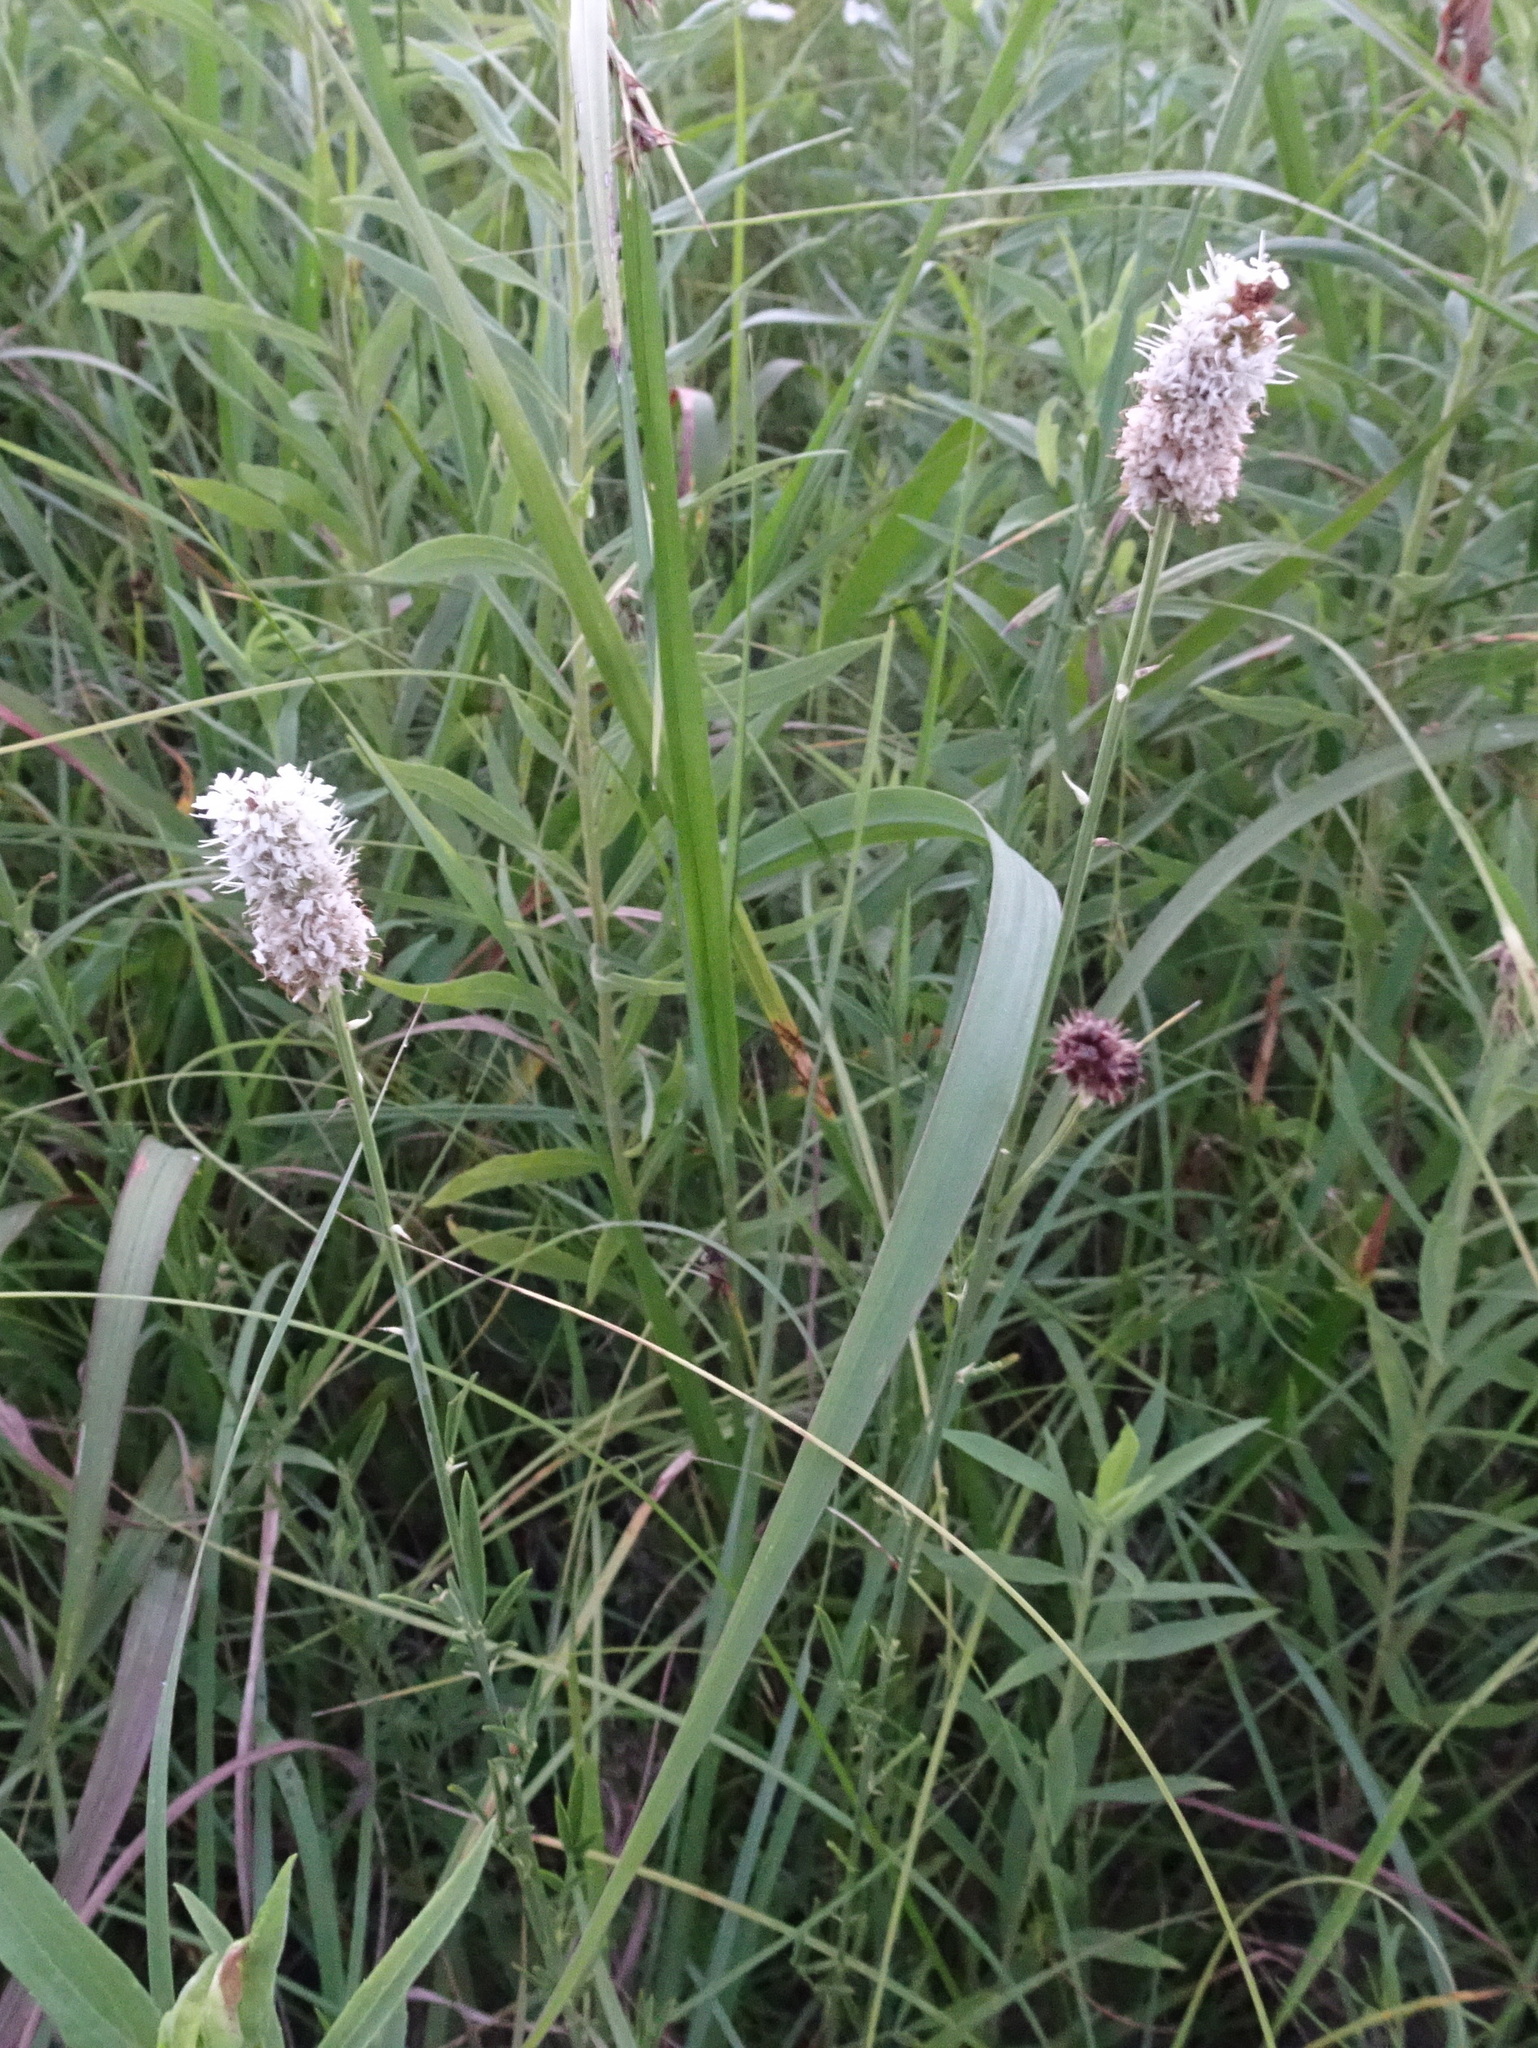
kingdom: Plantae
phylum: Tracheophyta
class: Magnoliopsida
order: Fabales
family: Fabaceae
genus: Dalea
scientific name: Dalea candida
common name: White prairie-clover
